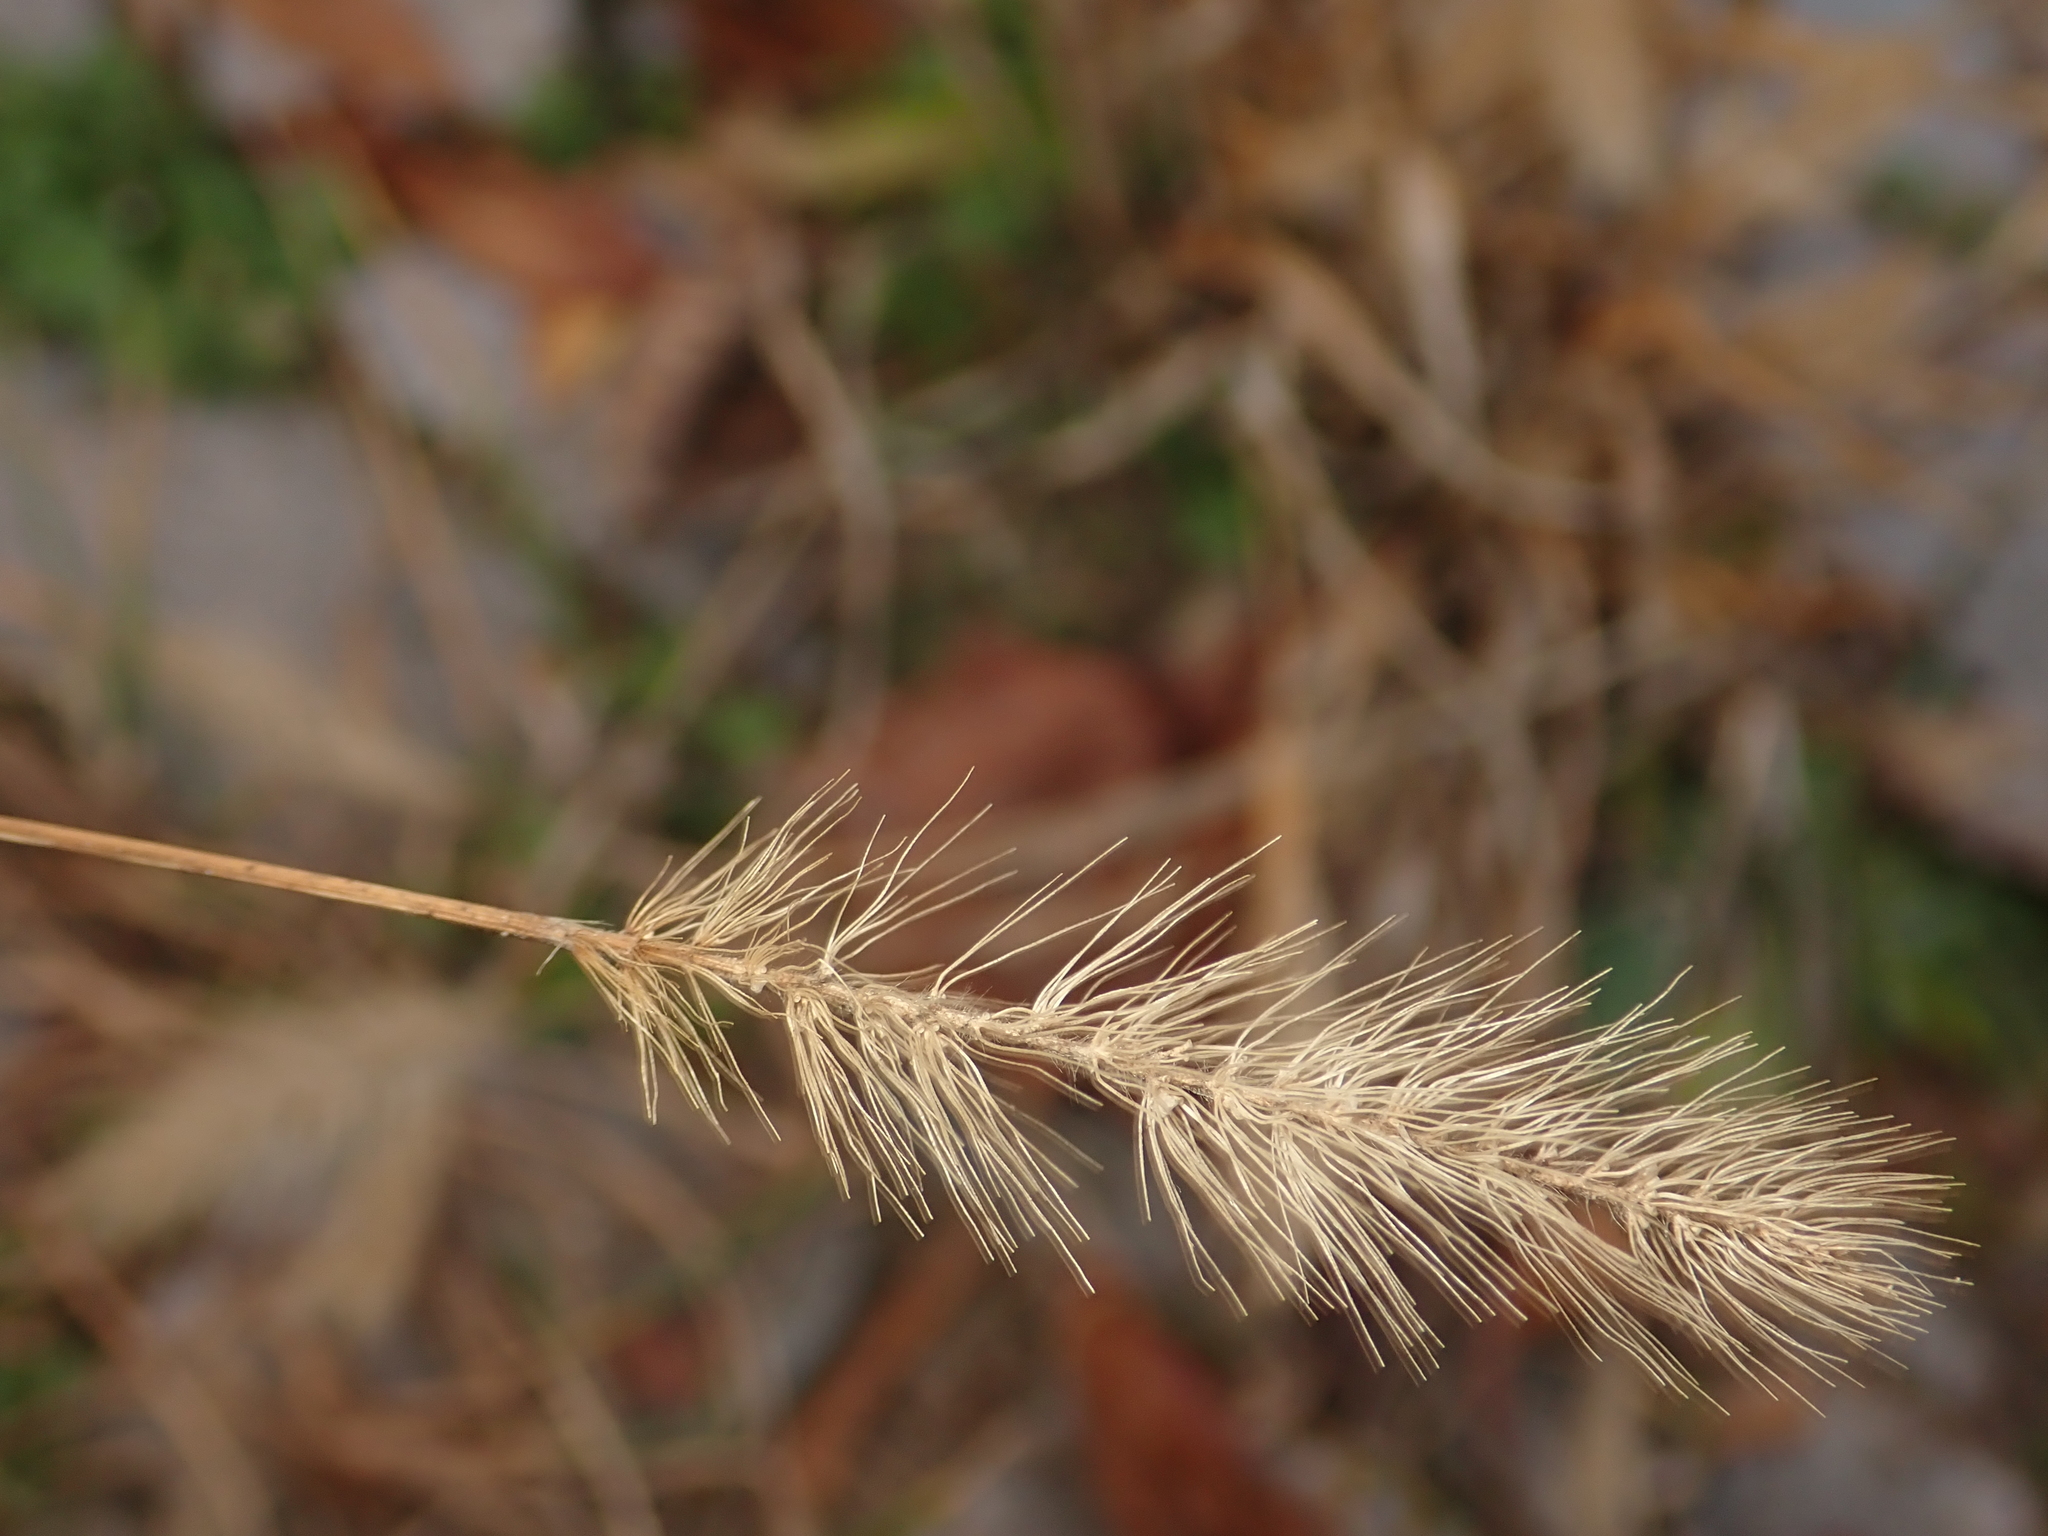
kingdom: Plantae
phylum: Tracheophyta
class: Liliopsida
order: Poales
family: Poaceae
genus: Setaria
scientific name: Setaria viridis
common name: Green bristlegrass
